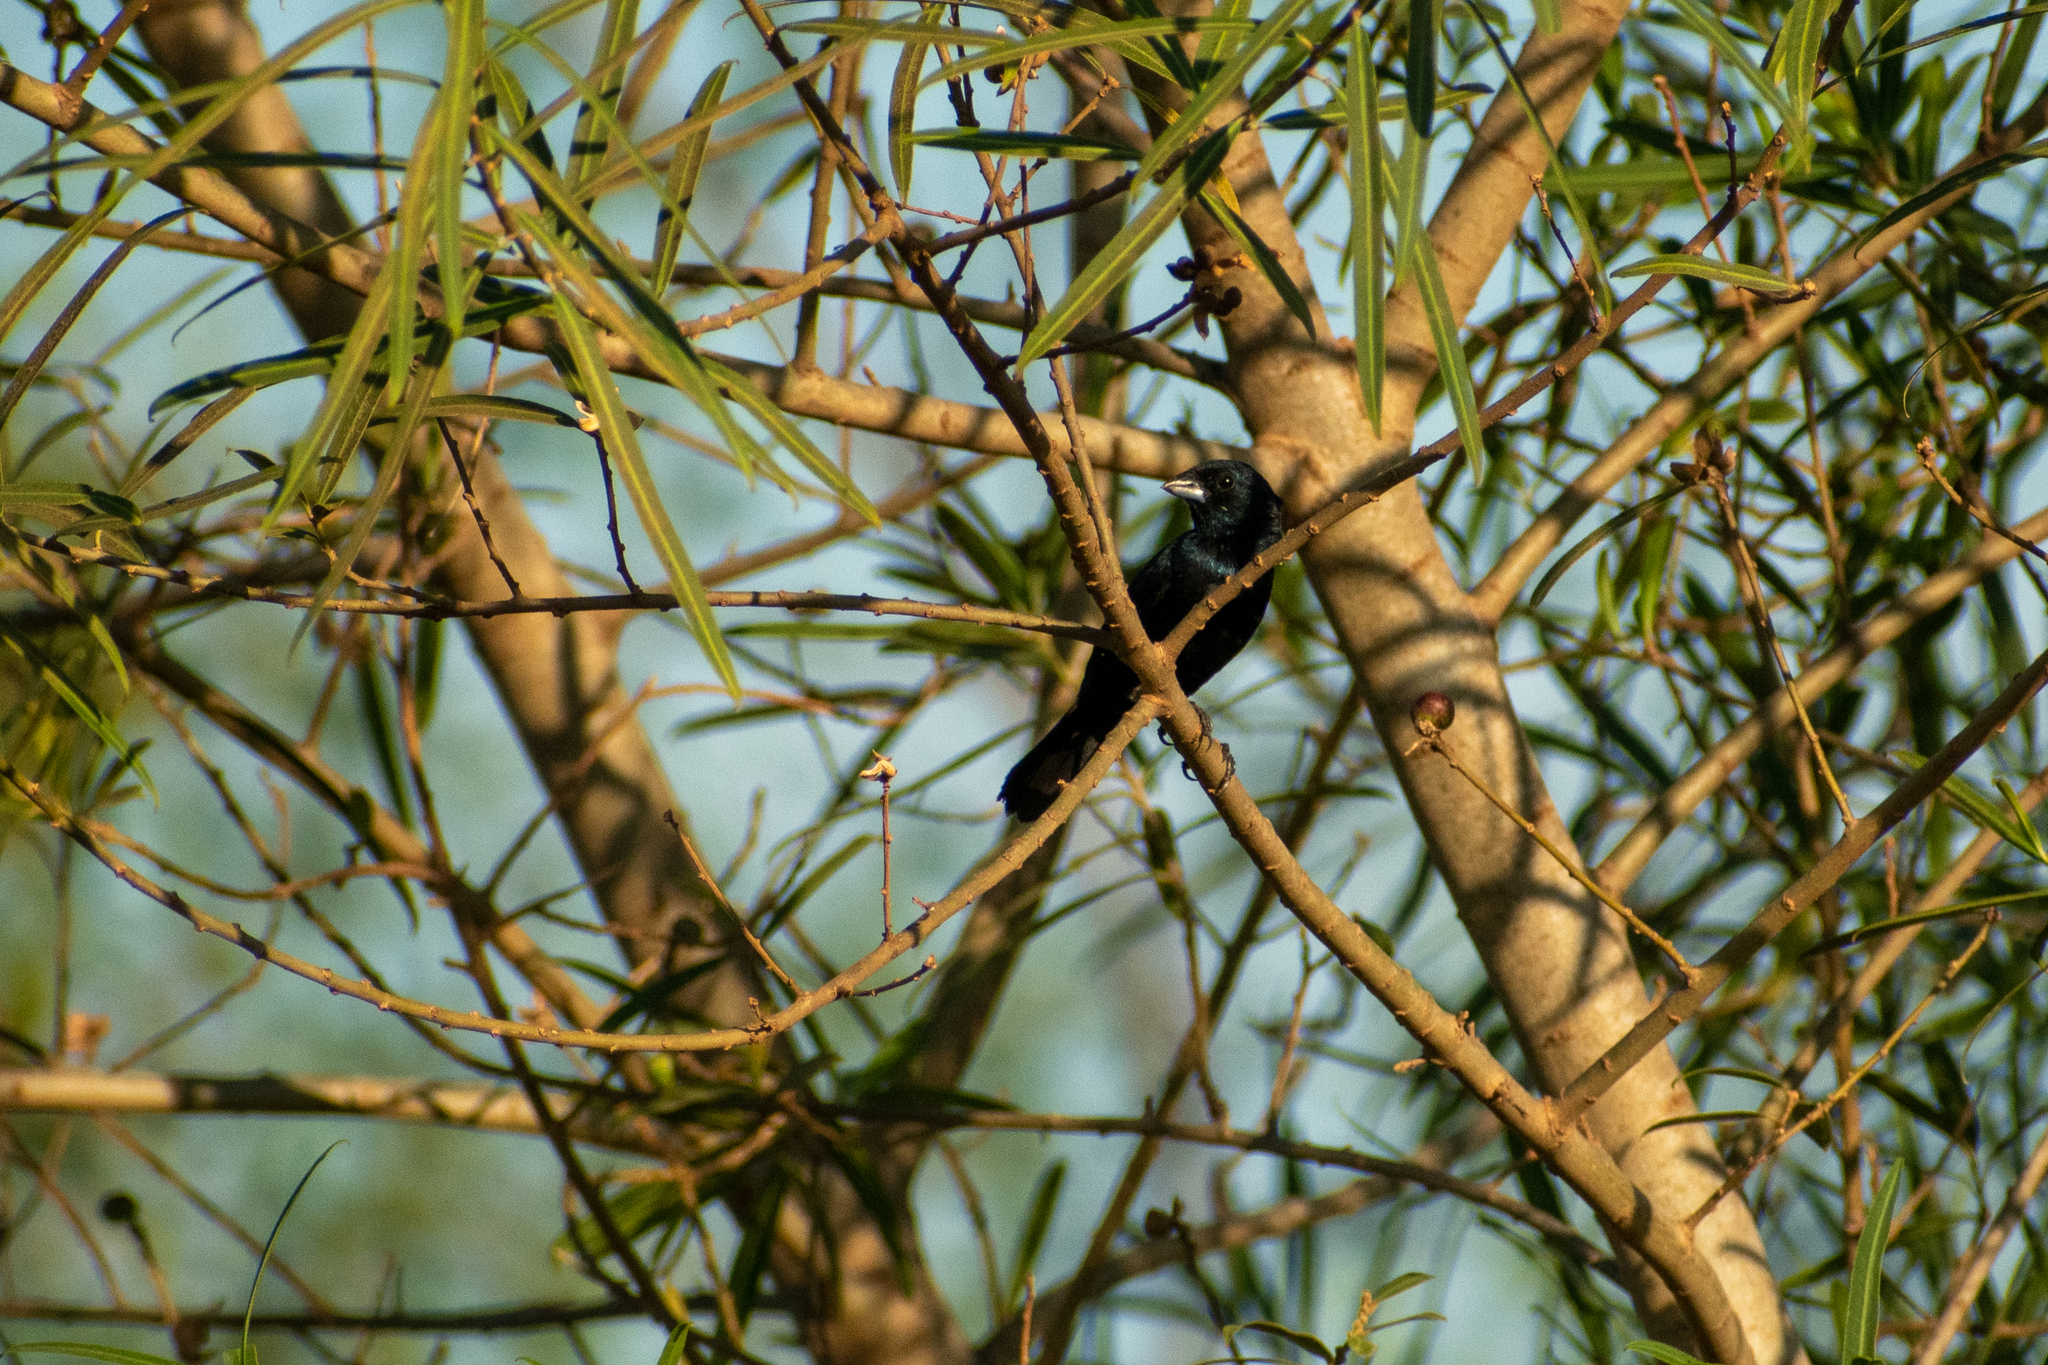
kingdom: Animalia
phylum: Chordata
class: Aves
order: Passeriformes
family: Thraupidae
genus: Volatinia
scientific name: Volatinia jacarina
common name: Blue-black grassquit
